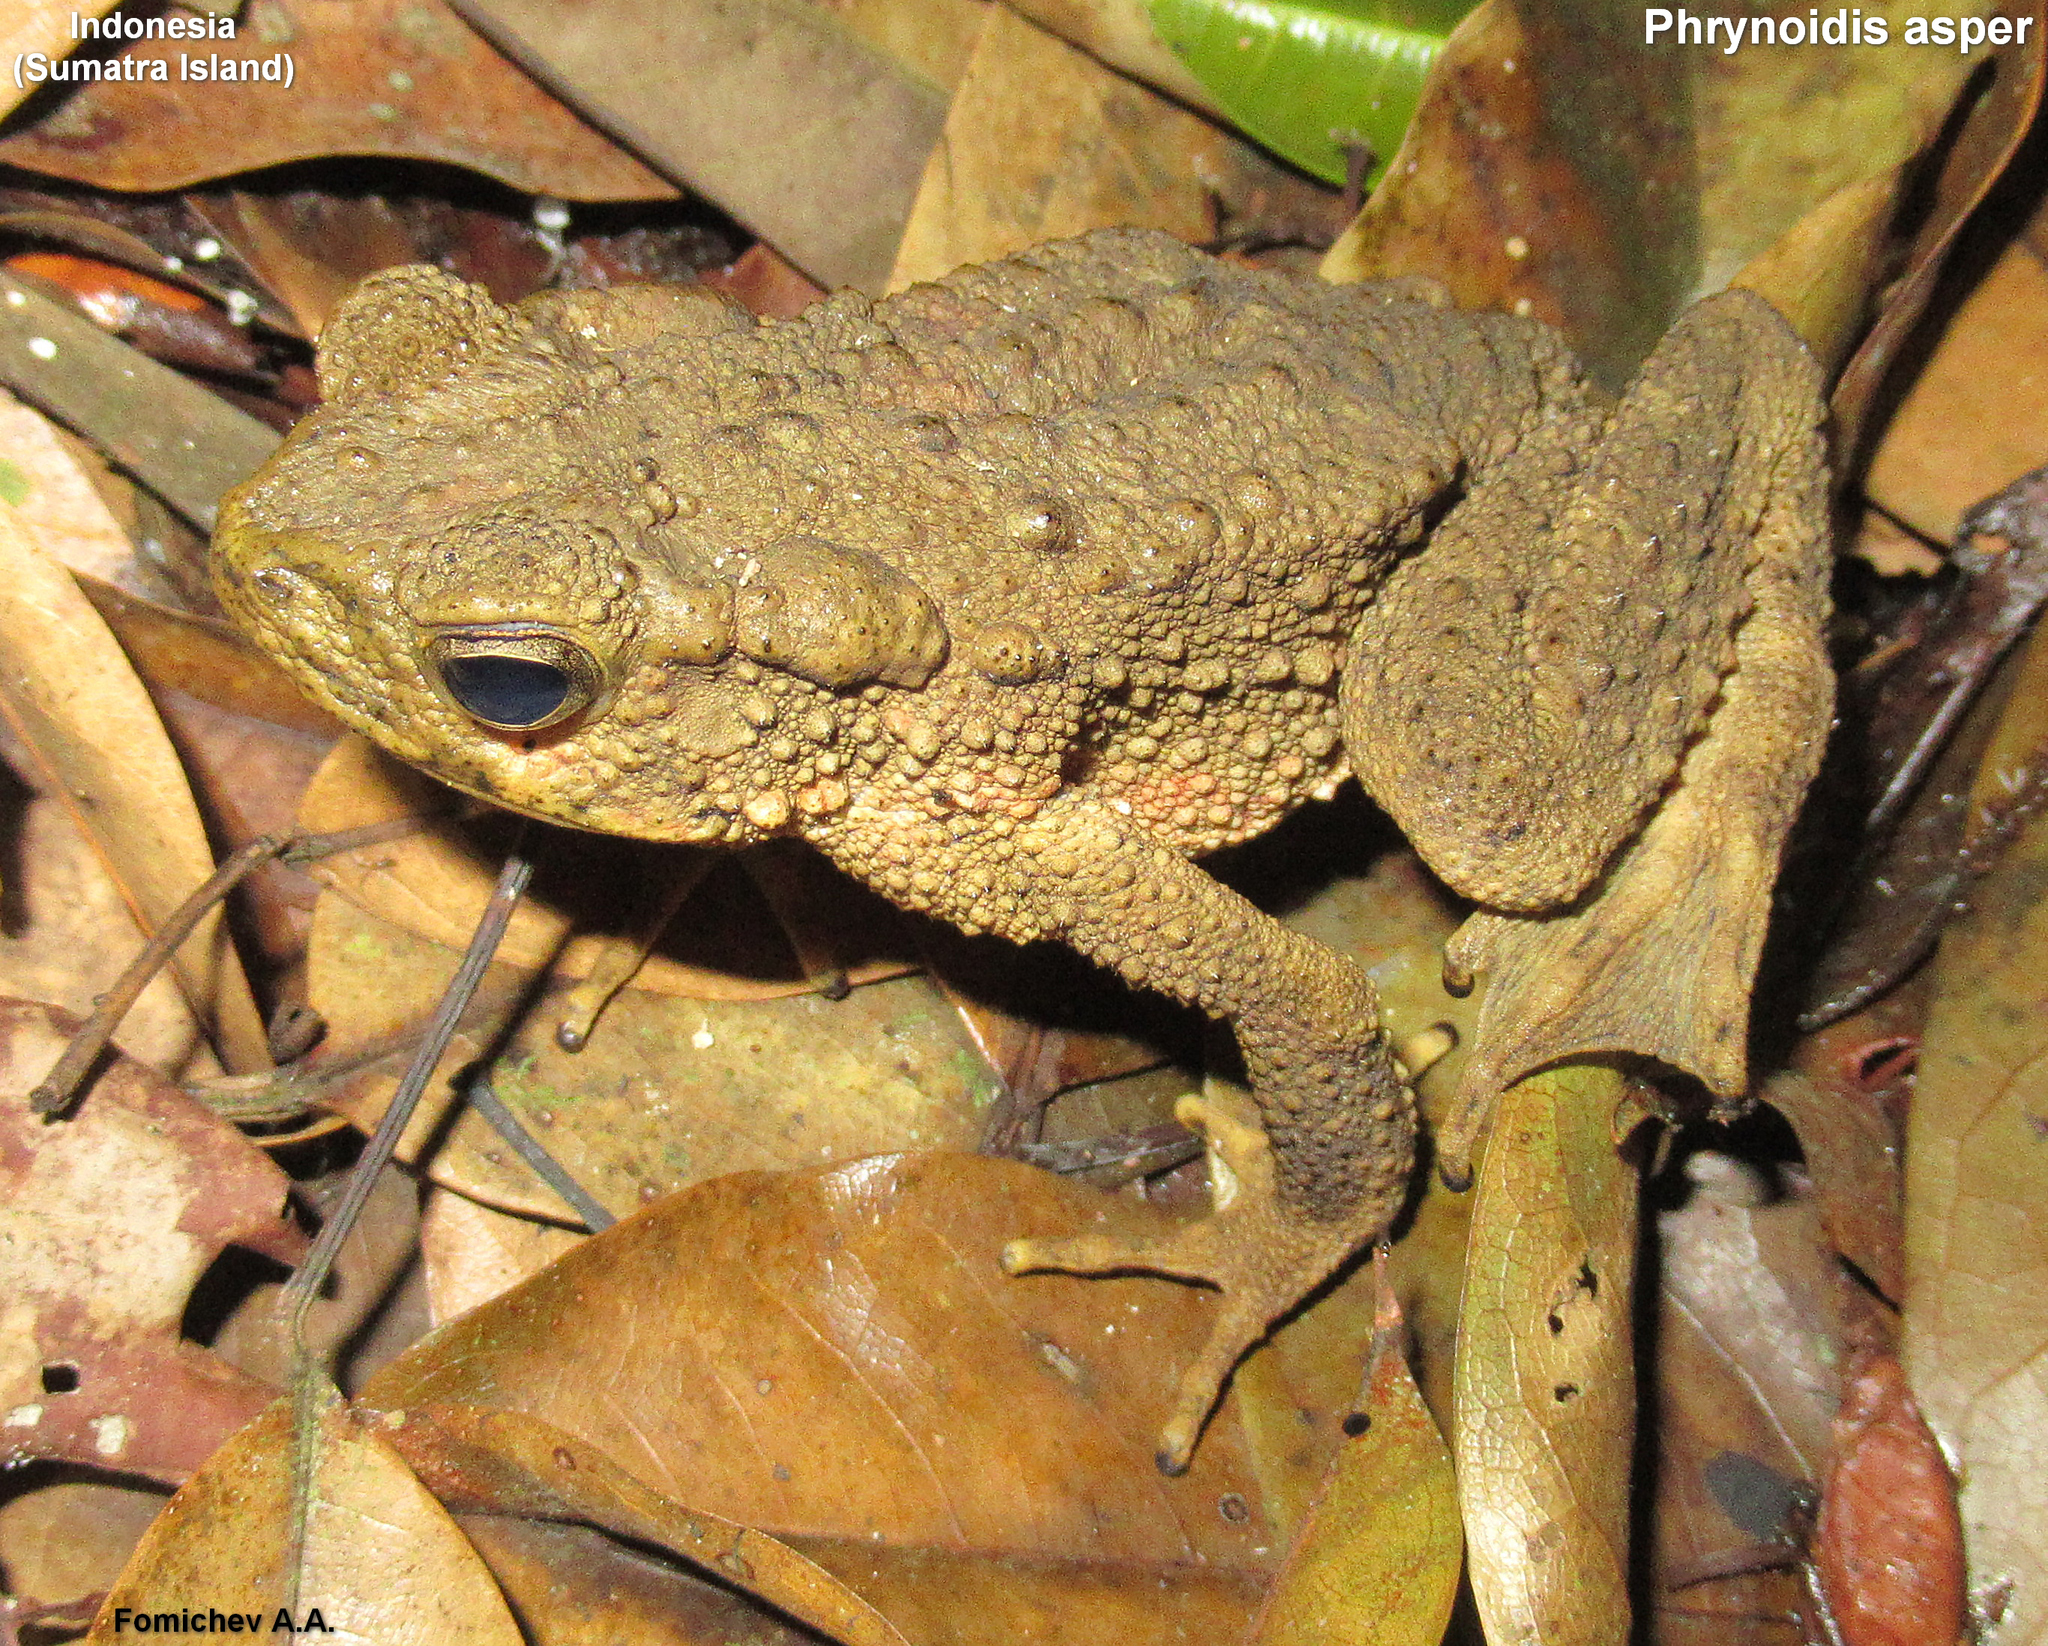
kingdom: Animalia
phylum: Chordata
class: Amphibia
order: Anura
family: Bufonidae
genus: Phrynoidis
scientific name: Phrynoidis asper
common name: Asian giant toad
